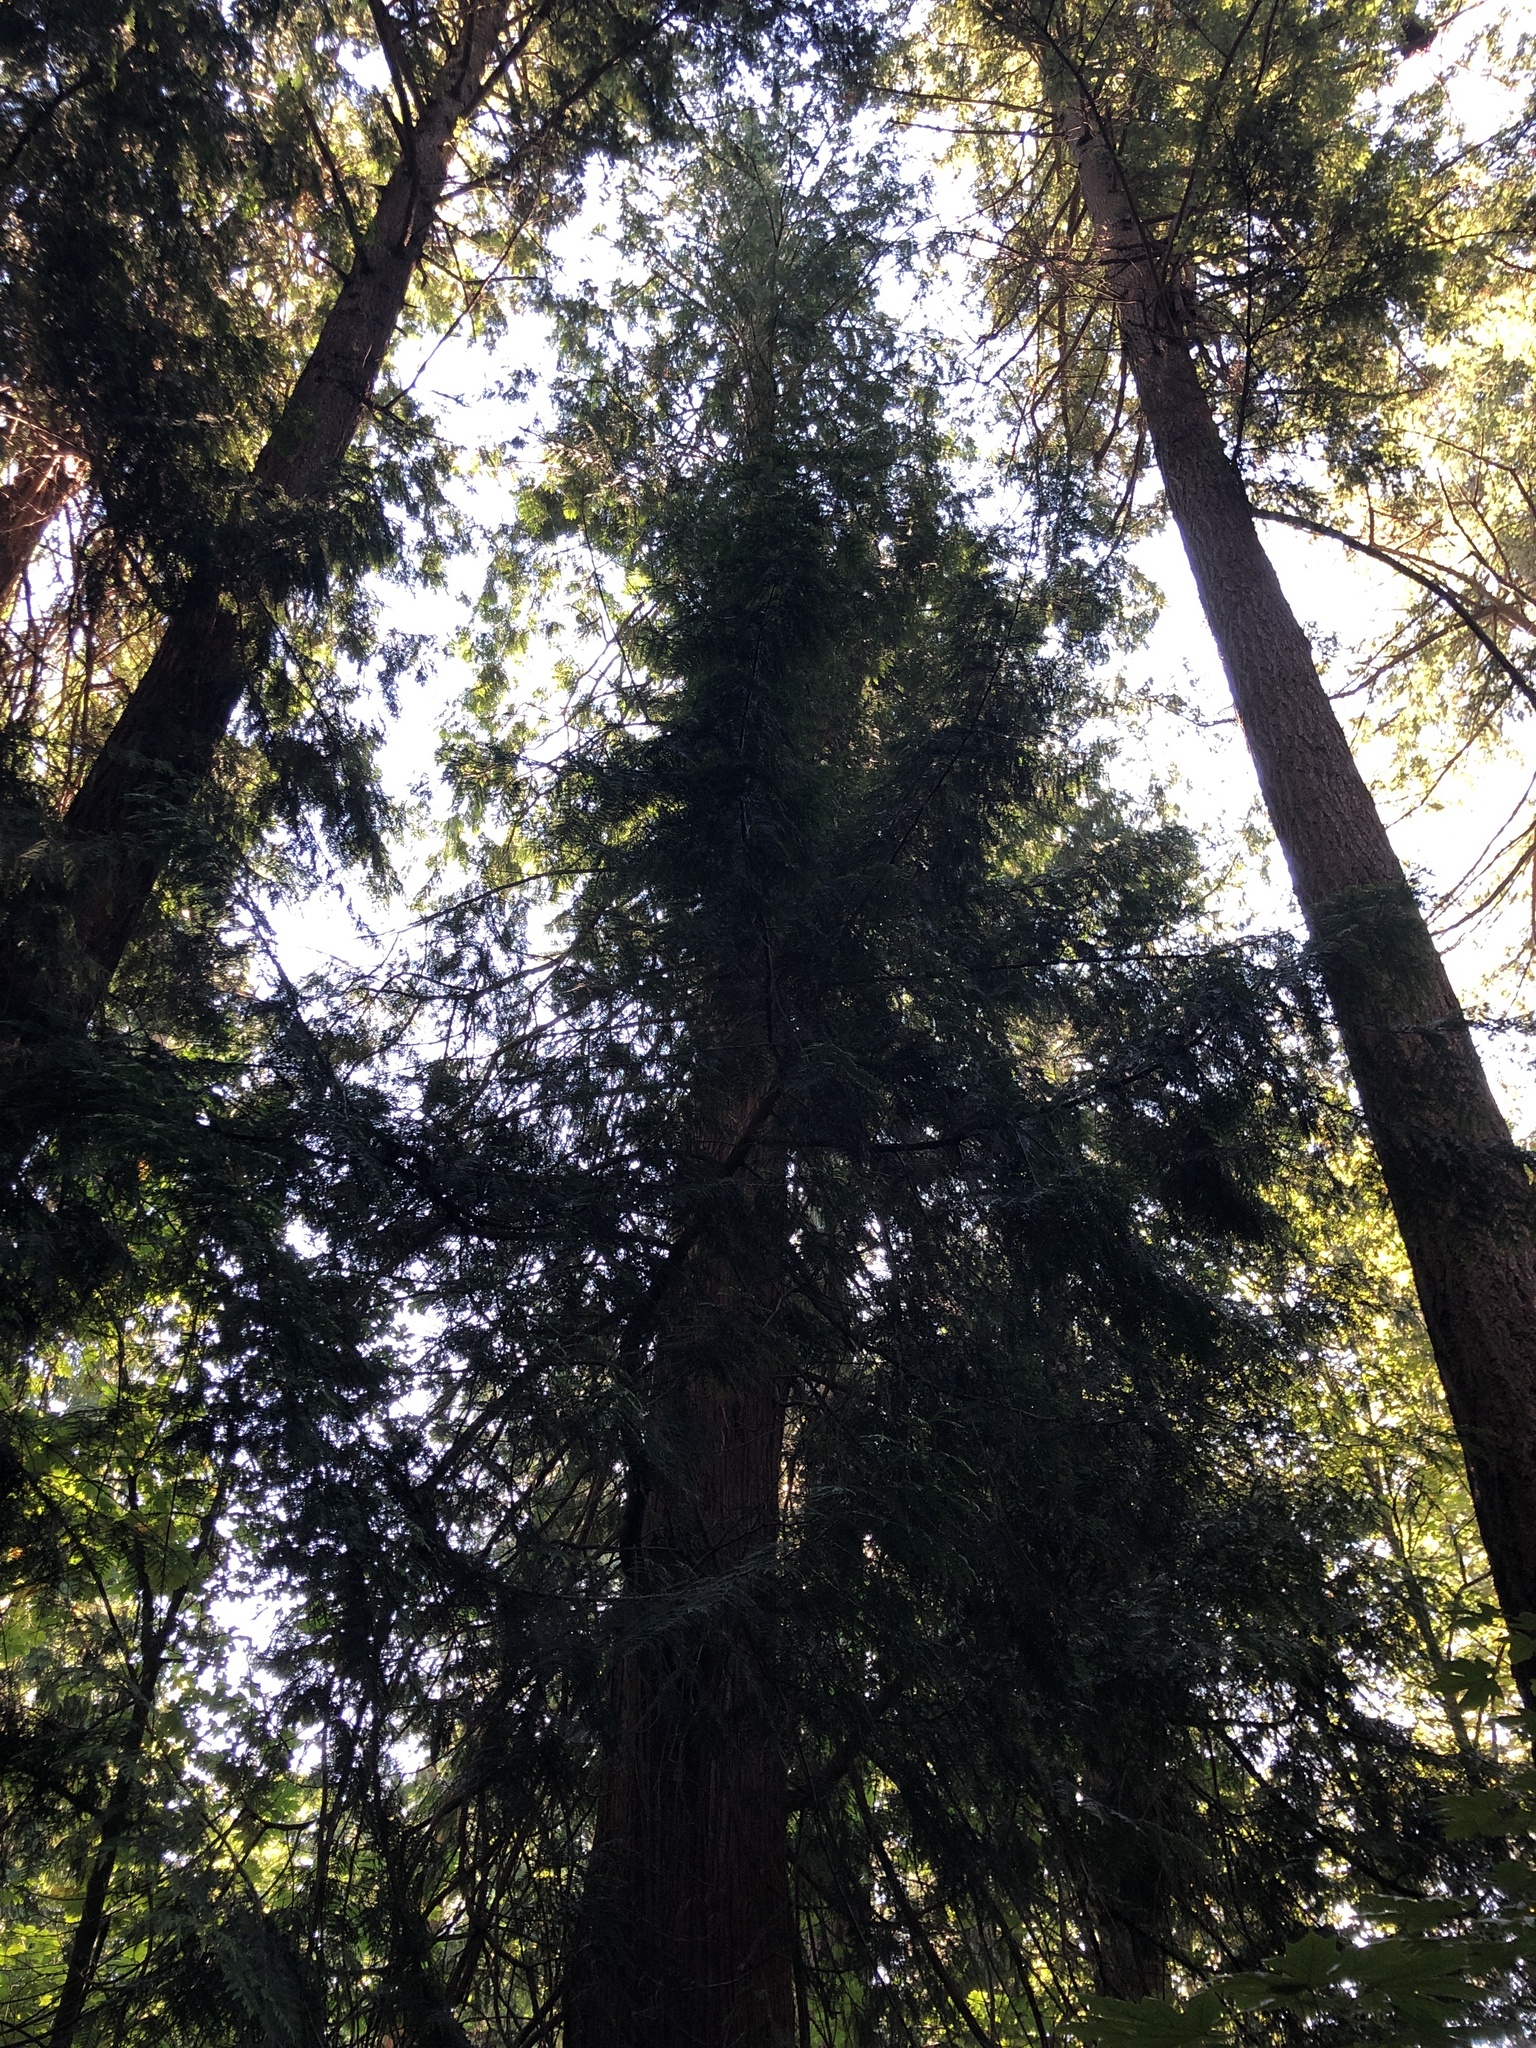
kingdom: Plantae
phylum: Tracheophyta
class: Pinopsida
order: Pinales
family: Cupressaceae
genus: Thuja
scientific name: Thuja plicata
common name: Western red-cedar
